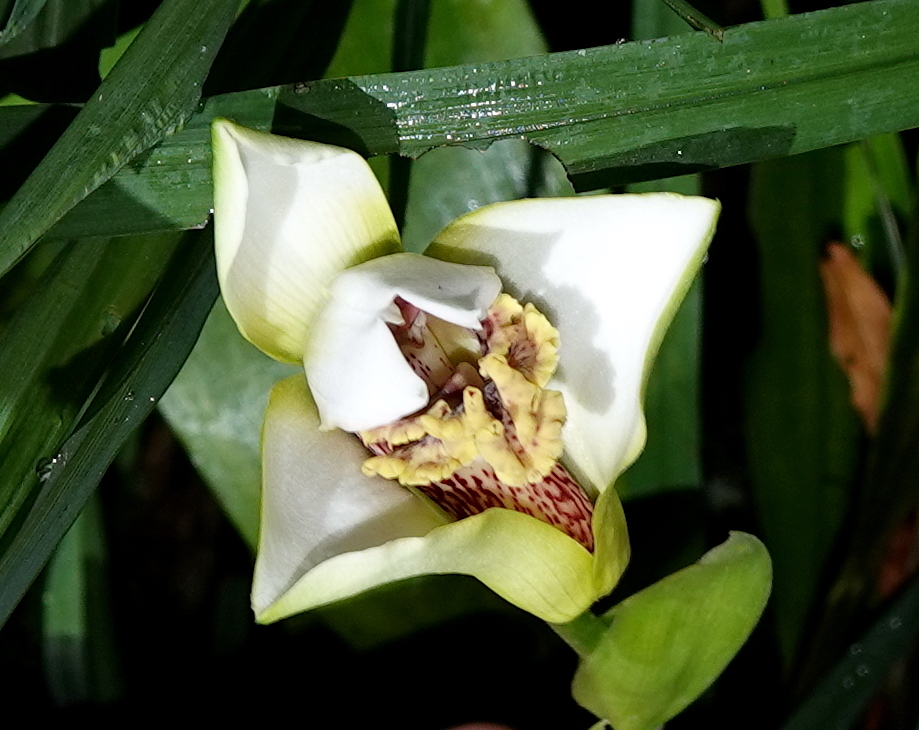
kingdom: Plantae
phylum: Tracheophyta
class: Liliopsida
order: Asparagales
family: Orchidaceae
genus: Maxillaria
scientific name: Maxillaria fletcheriana
